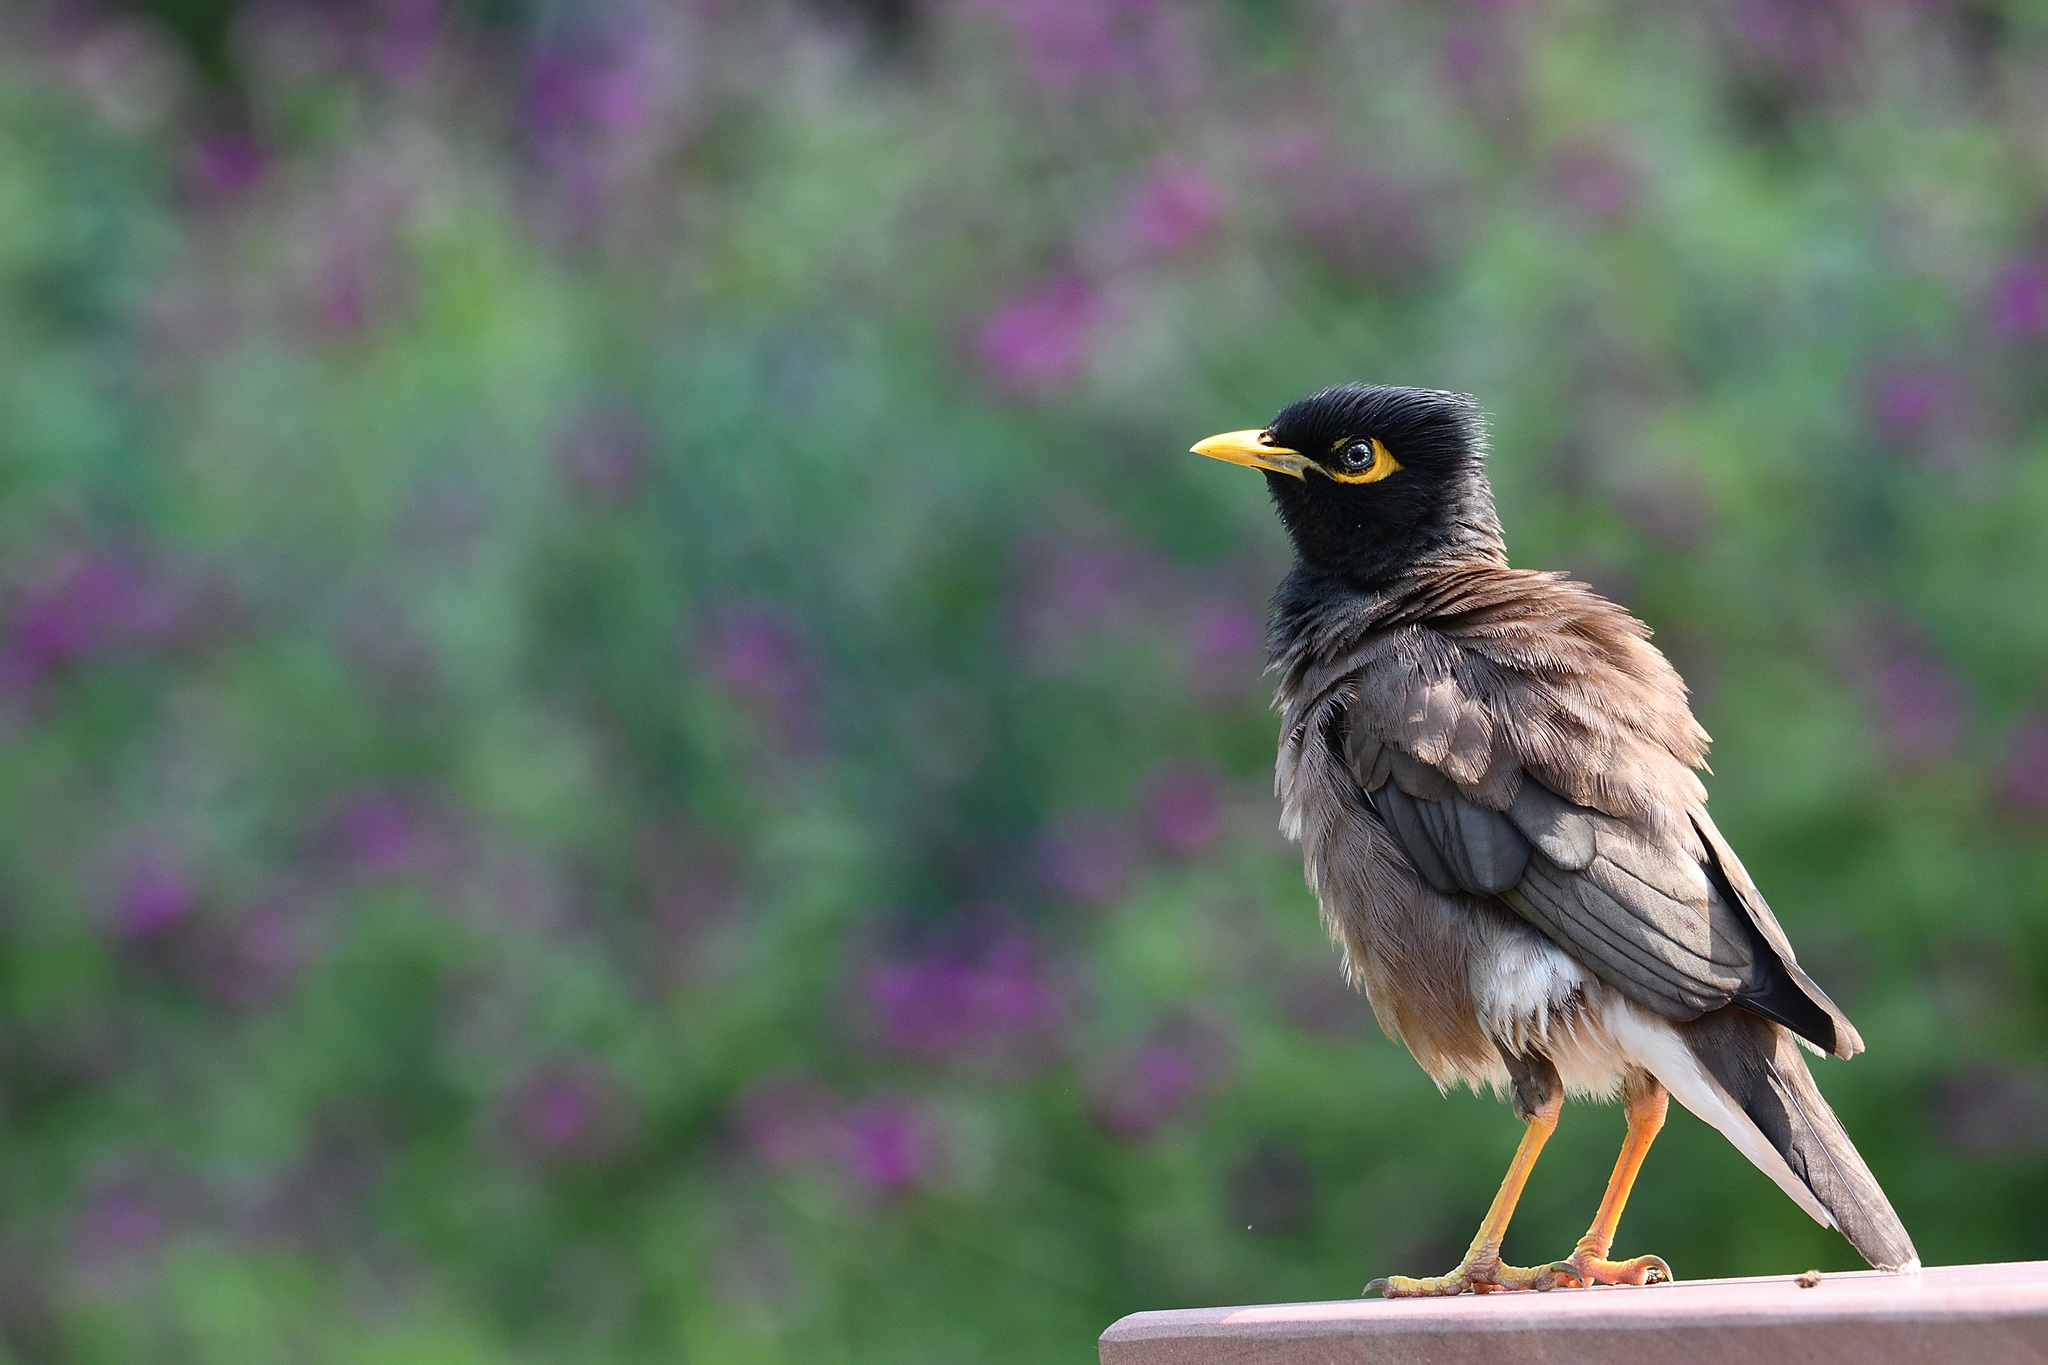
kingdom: Animalia
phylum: Chordata
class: Aves
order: Passeriformes
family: Sturnidae
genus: Acridotheres
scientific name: Acridotheres tristis
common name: Common myna
